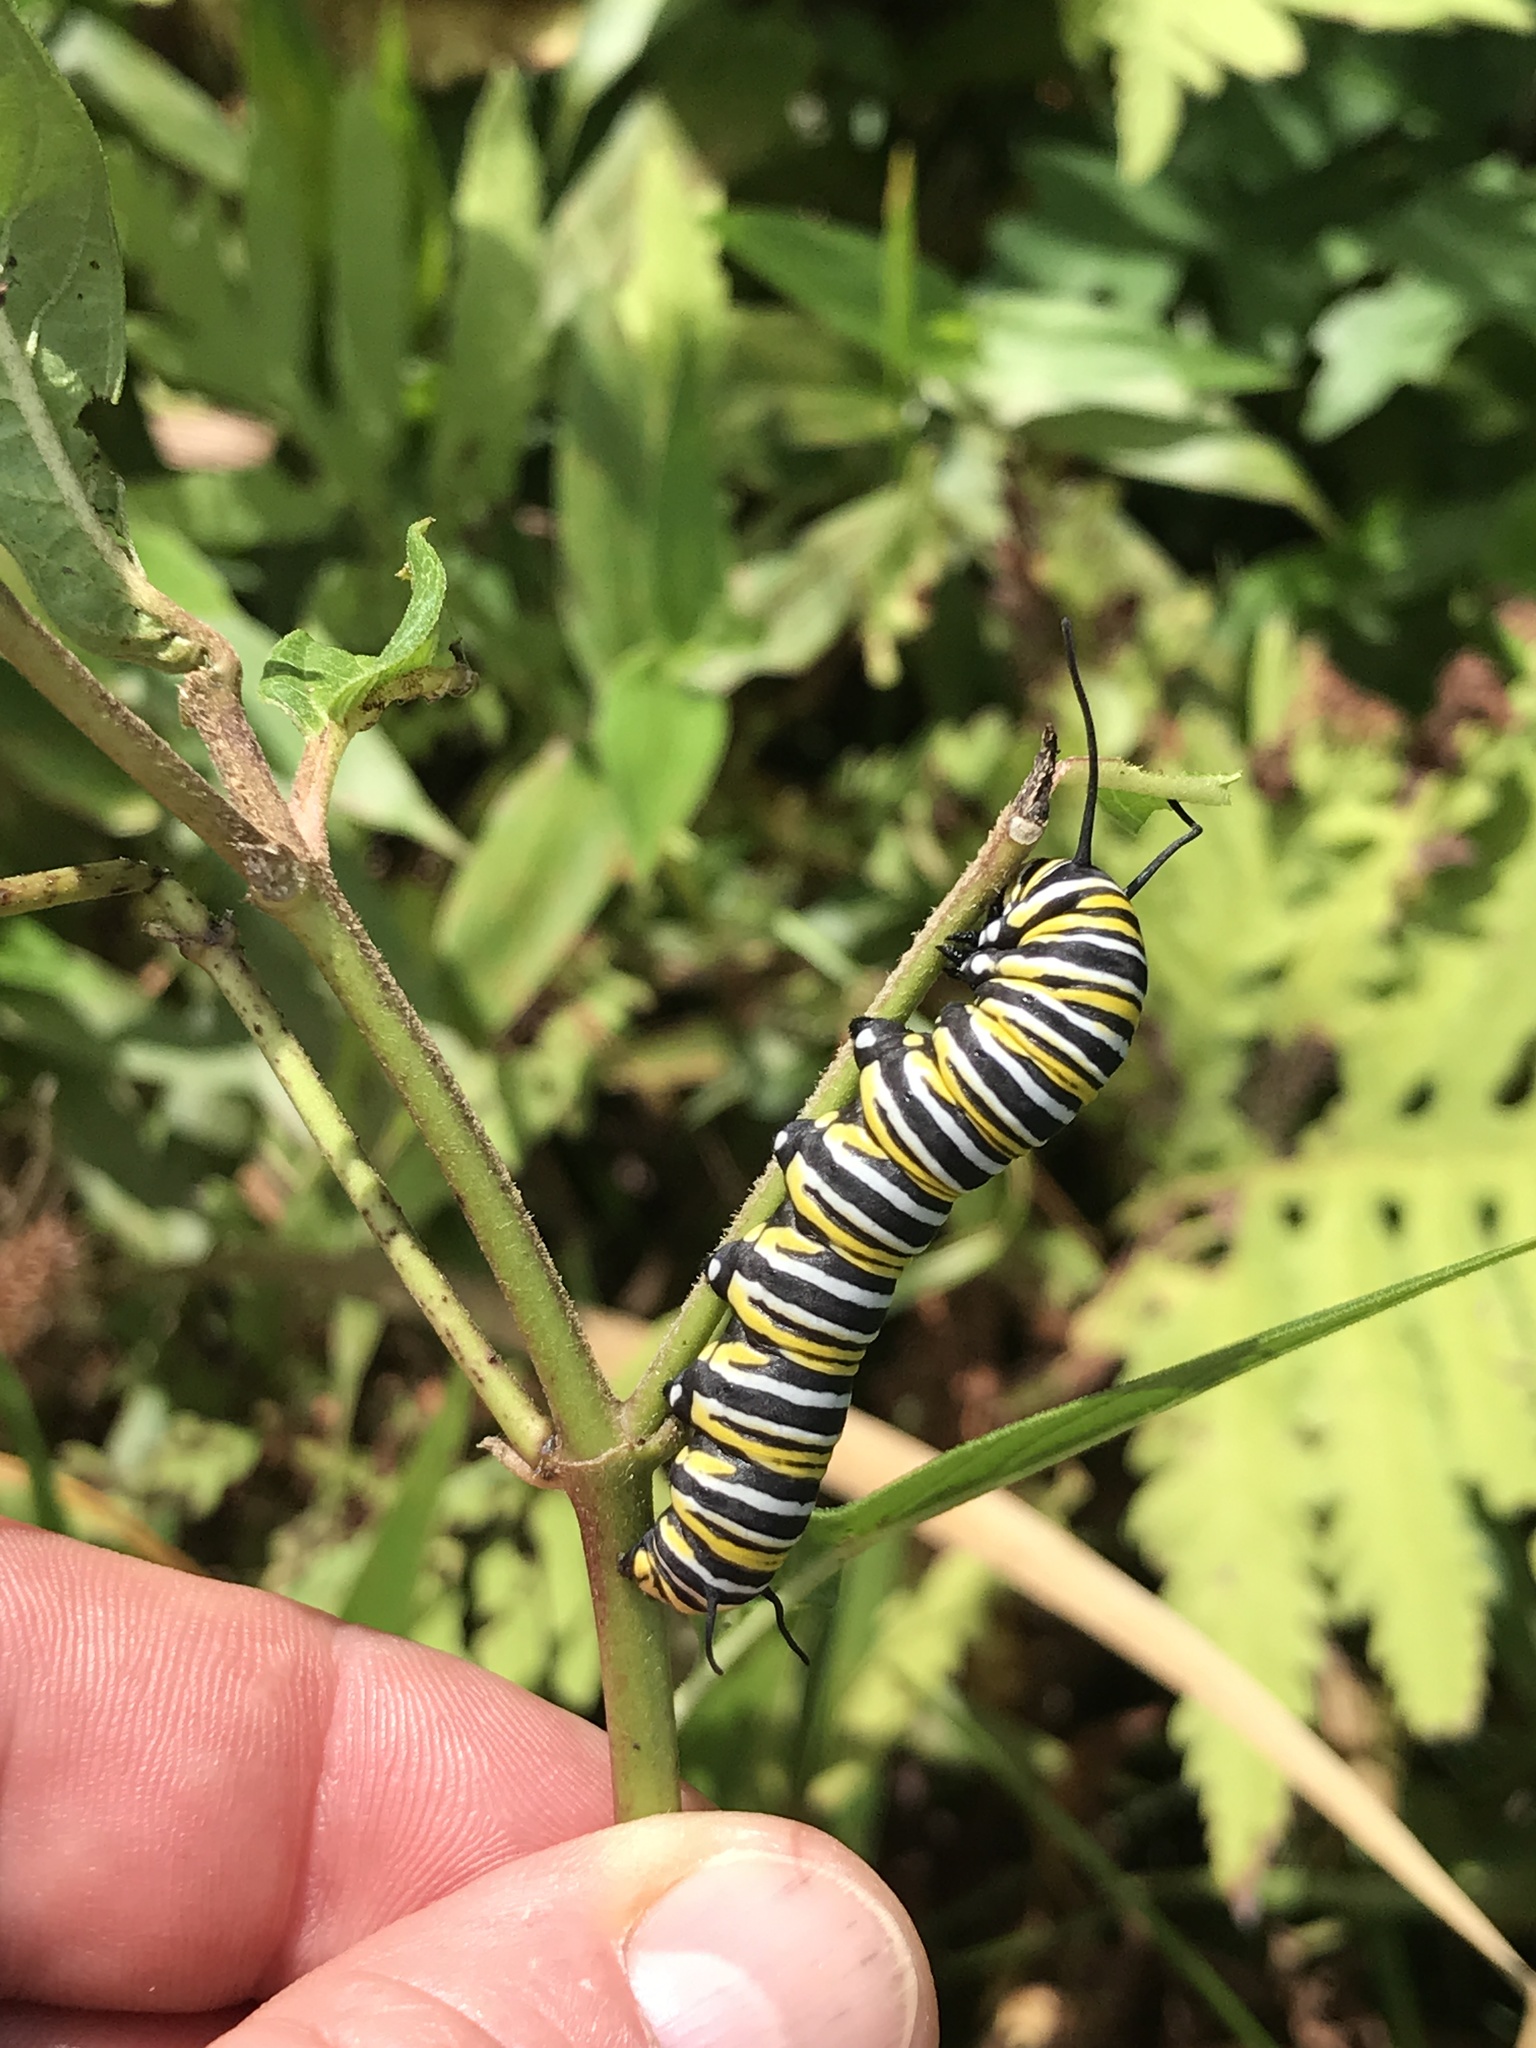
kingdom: Animalia
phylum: Arthropoda
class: Insecta
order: Lepidoptera
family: Nymphalidae
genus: Danaus
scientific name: Danaus plexippus
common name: Monarch
